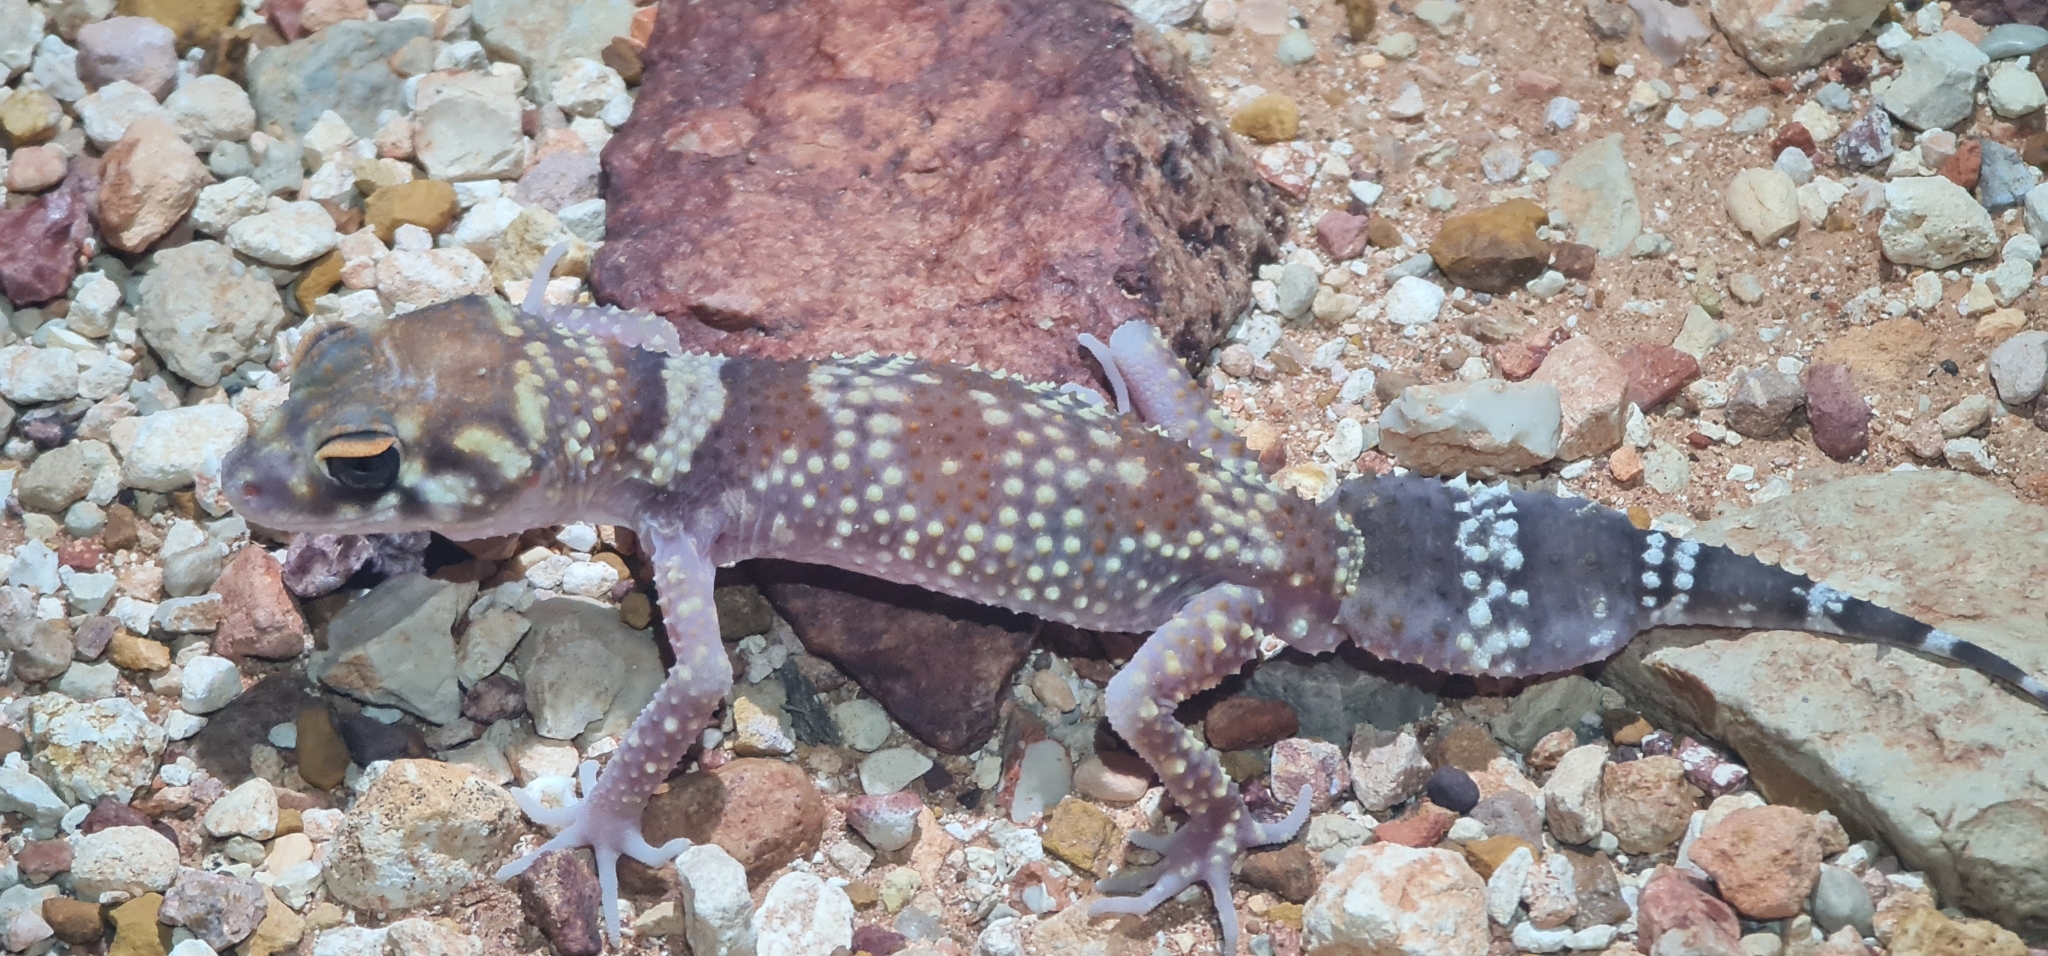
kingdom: Animalia
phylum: Chordata
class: Squamata
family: Carphodactylidae
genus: Underwoodisaurus
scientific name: Underwoodisaurus milii
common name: Barking gecko
